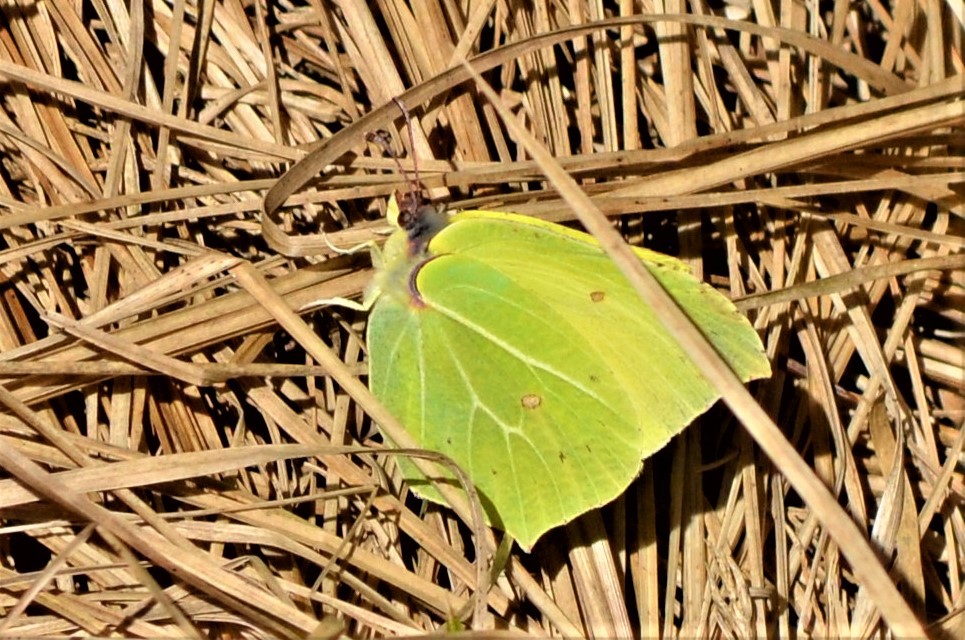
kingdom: Animalia
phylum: Arthropoda
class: Insecta
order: Lepidoptera
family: Pieridae
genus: Gonepteryx
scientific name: Gonepteryx rhamni
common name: Brimstone
